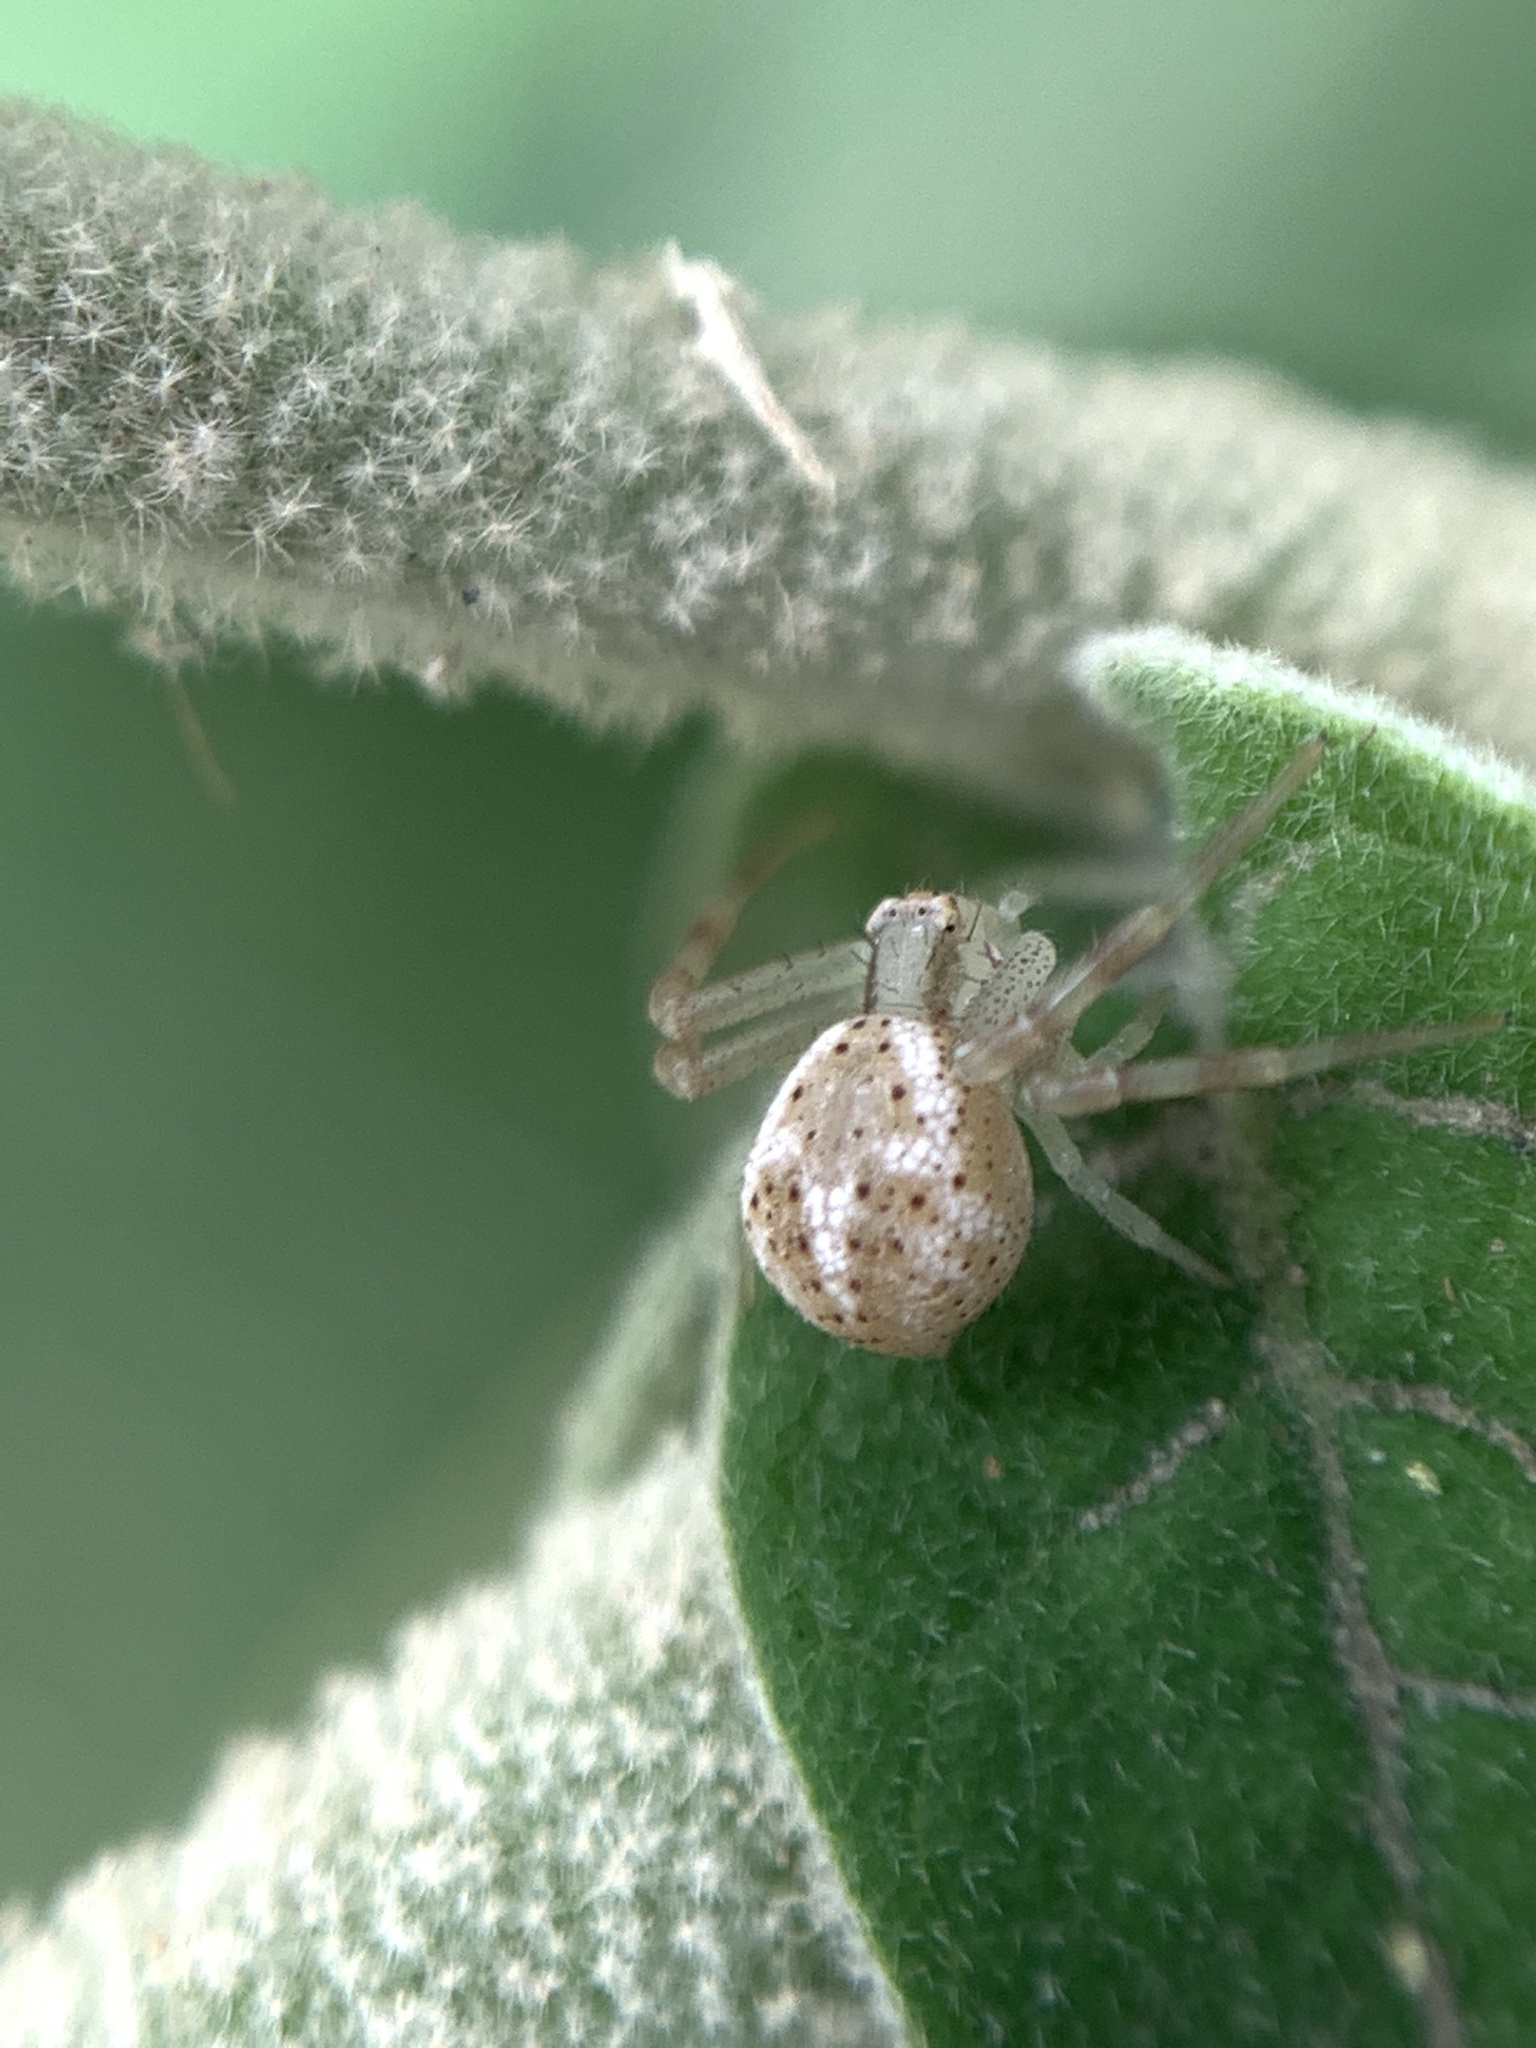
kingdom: Animalia
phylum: Arthropoda
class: Arachnida
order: Araneae
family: Thomisidae
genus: Misumenops
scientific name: Misumenops
